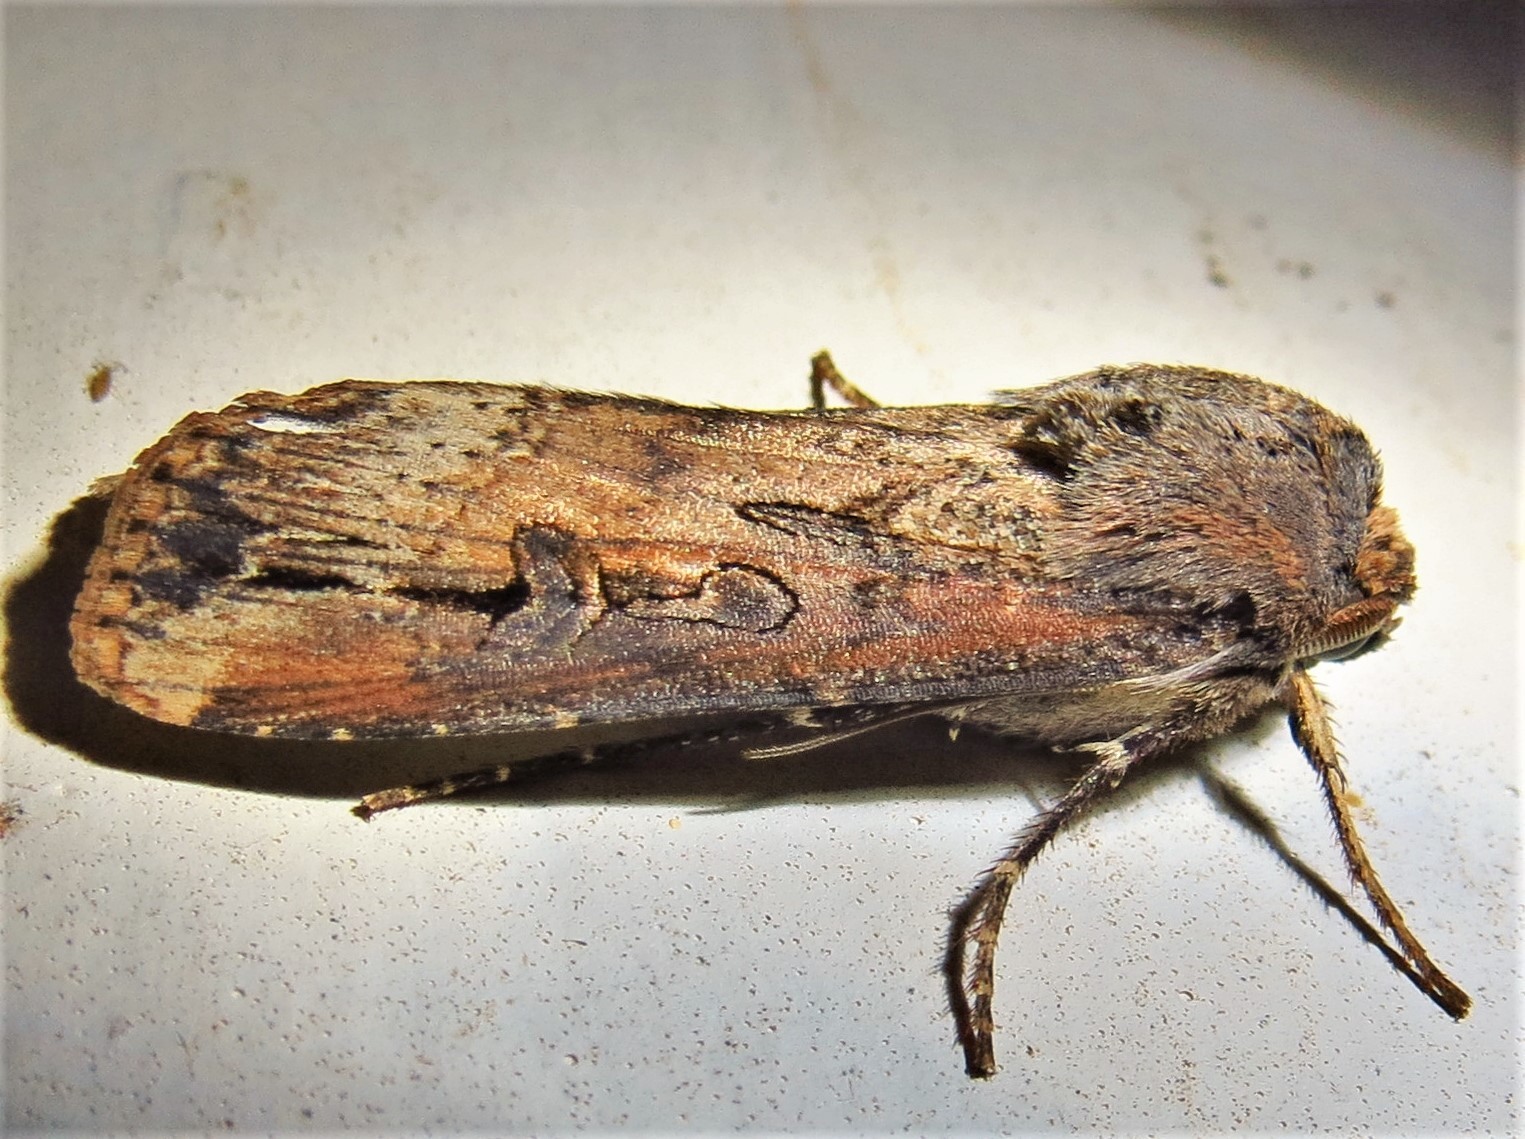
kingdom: Animalia
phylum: Arthropoda
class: Insecta
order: Lepidoptera
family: Noctuidae
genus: Agrotis
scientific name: Agrotis ipsilon
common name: Dark sword-grass
